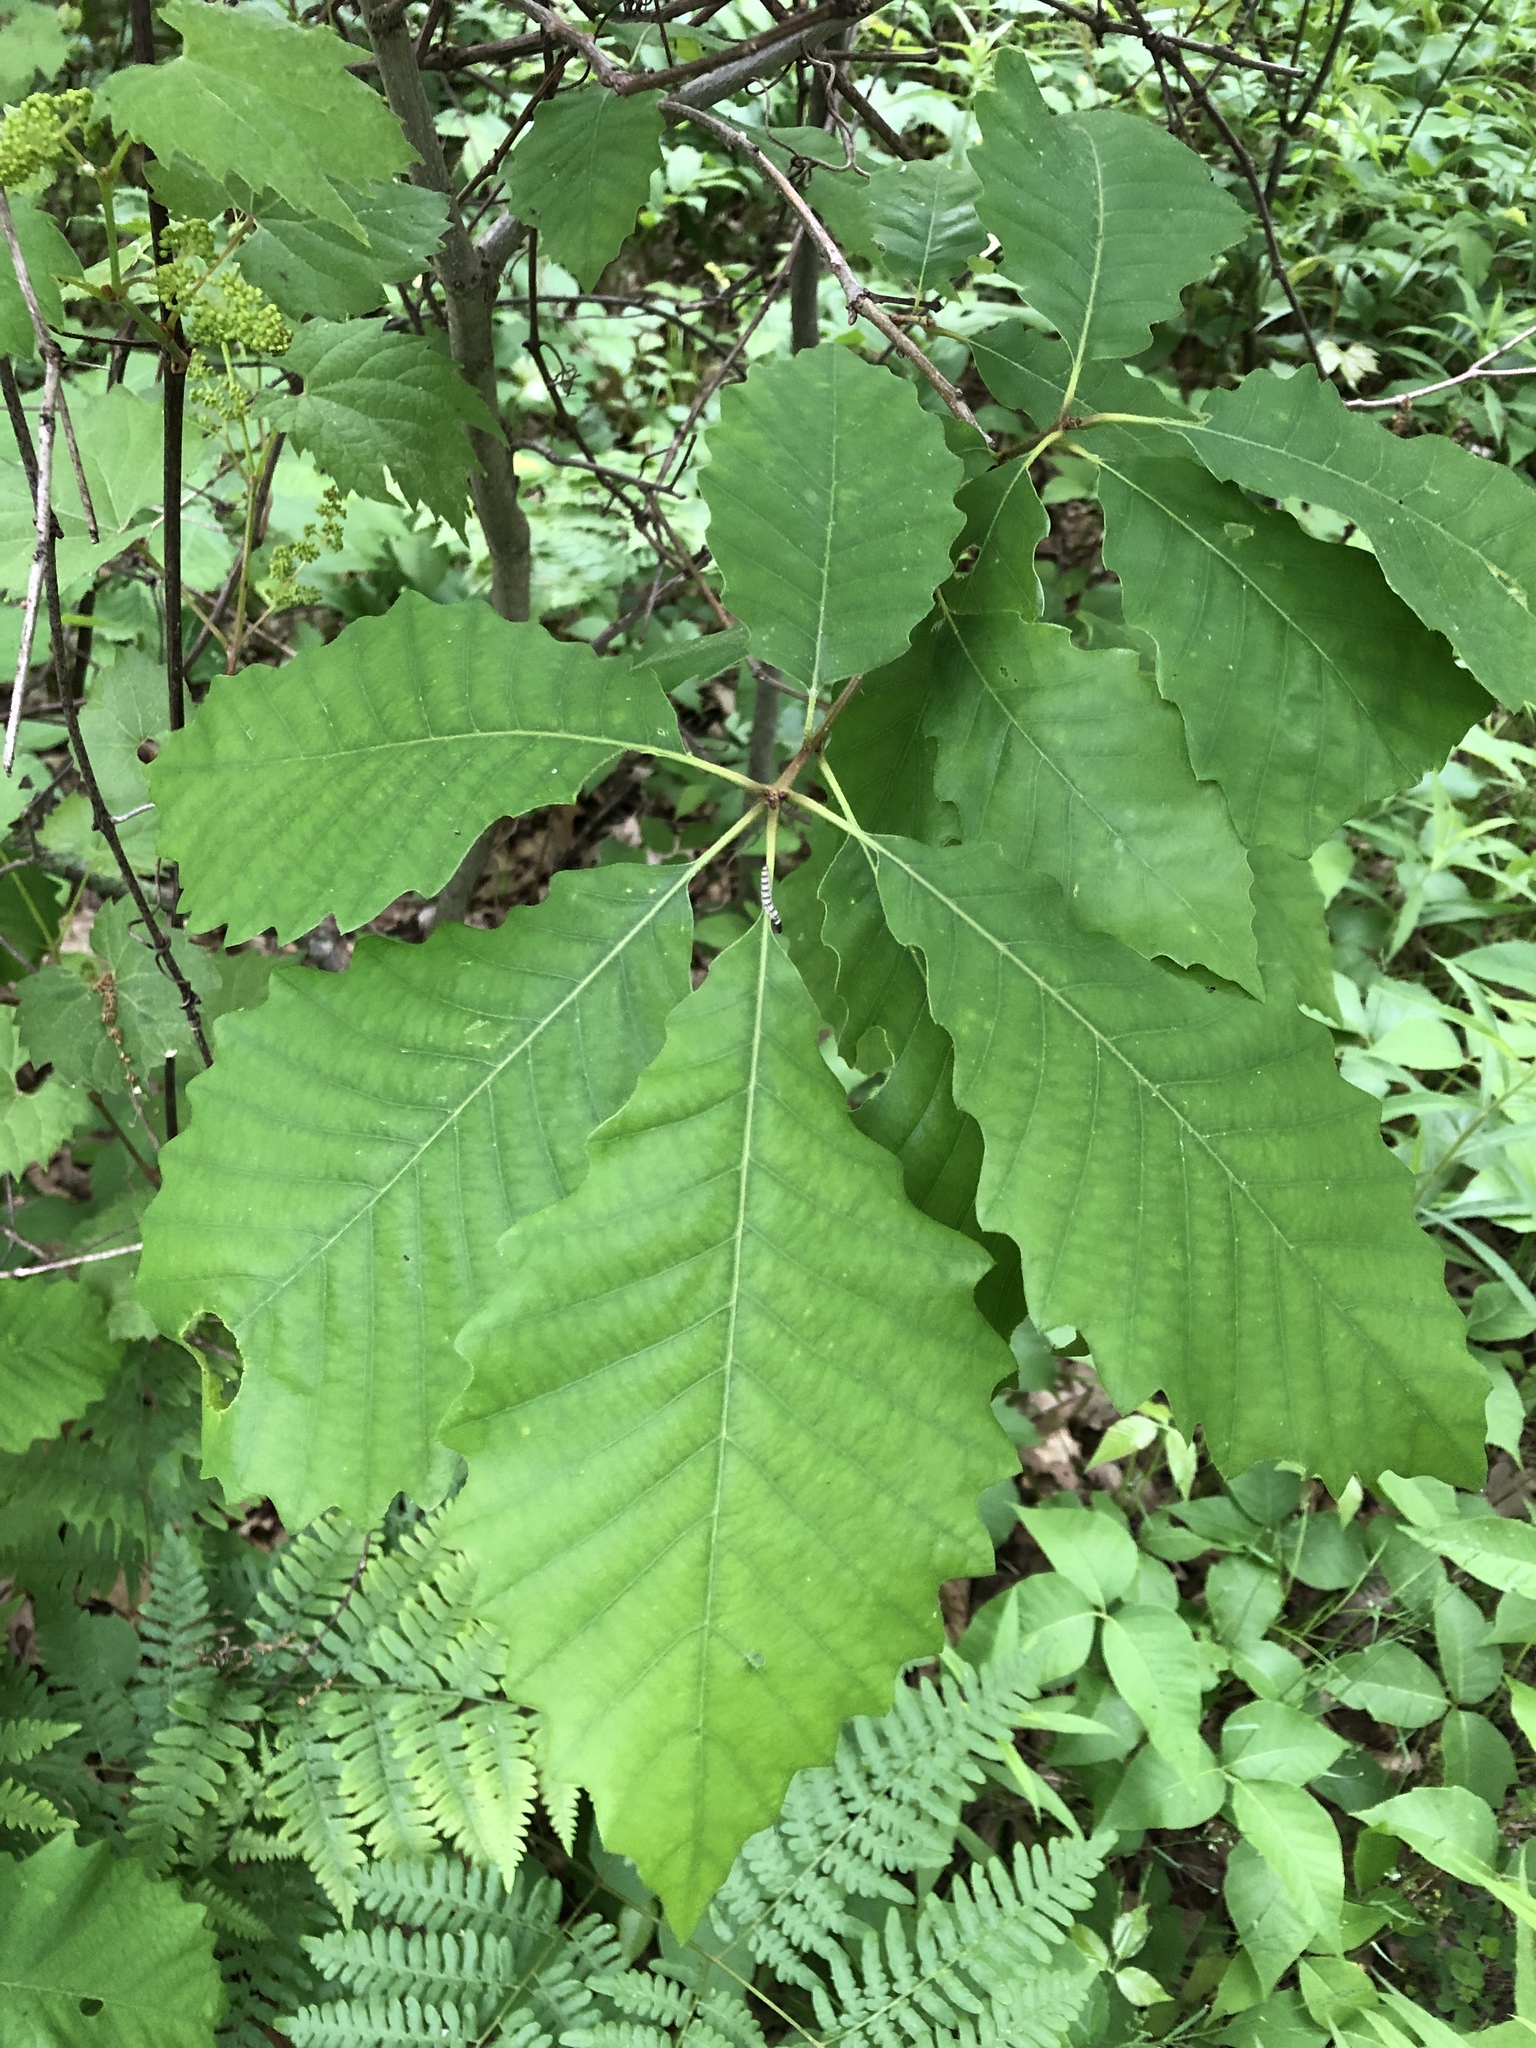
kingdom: Plantae
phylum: Tracheophyta
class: Magnoliopsida
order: Fagales
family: Fagaceae
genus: Quercus
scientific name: Quercus muehlenbergii
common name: Chinkapin oak
